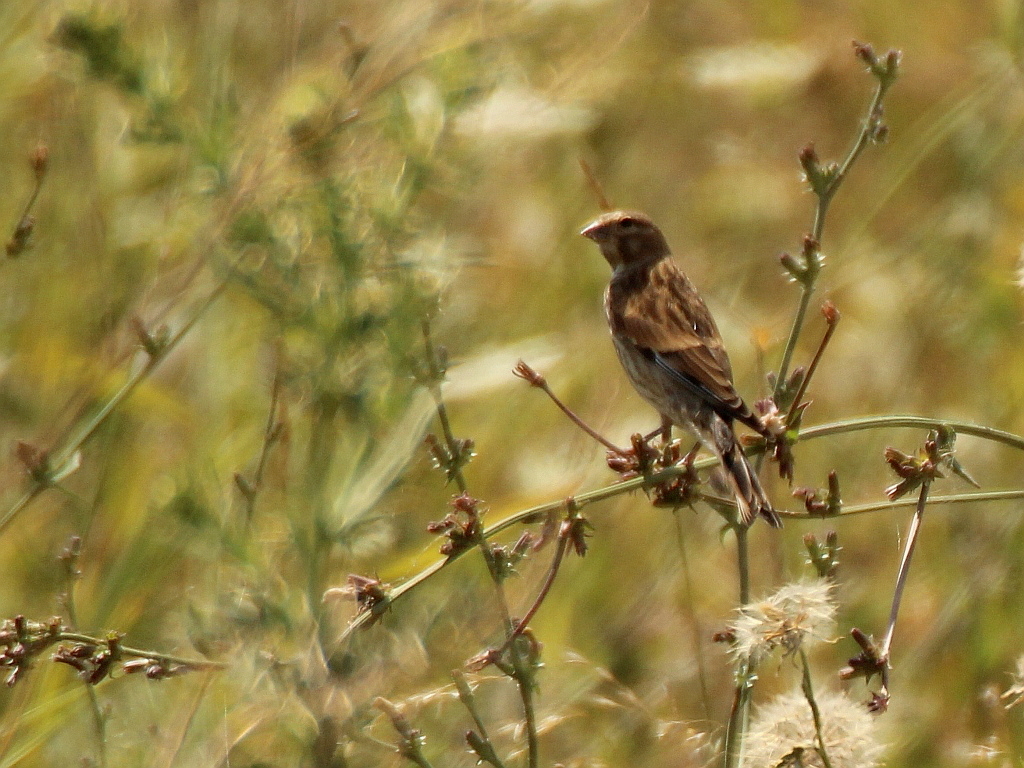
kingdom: Animalia
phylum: Chordata
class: Aves
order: Passeriformes
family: Fringillidae
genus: Linaria
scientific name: Linaria cannabina
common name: Common linnet
